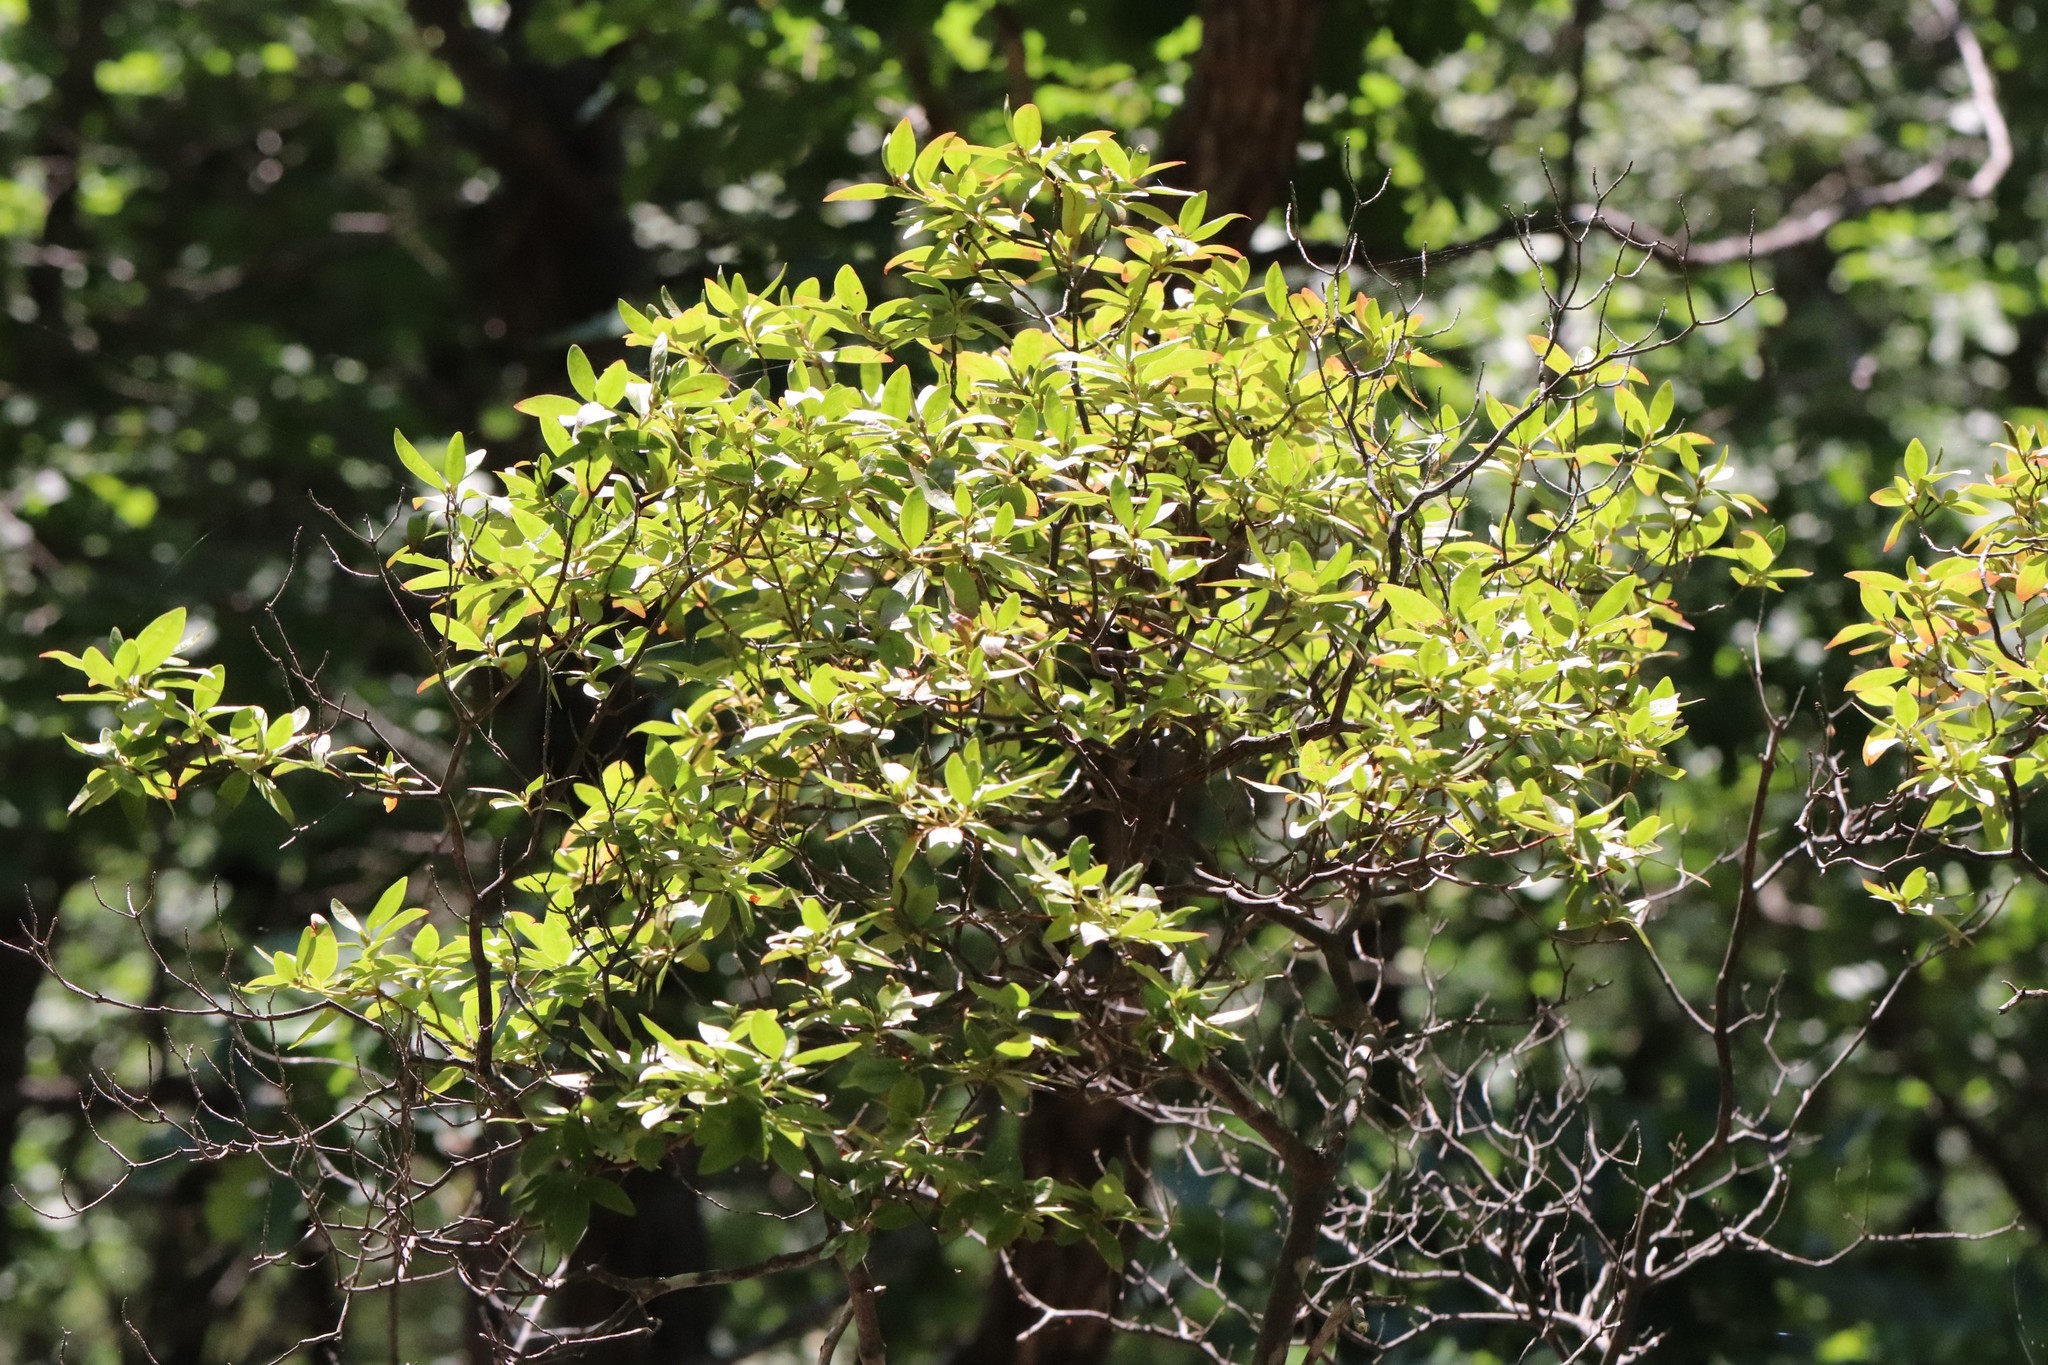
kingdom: Plantae
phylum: Tracheophyta
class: Magnoliopsida
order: Ericales
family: Ericaceae
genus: Rhododendron
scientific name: Rhododendron mucronulatum
